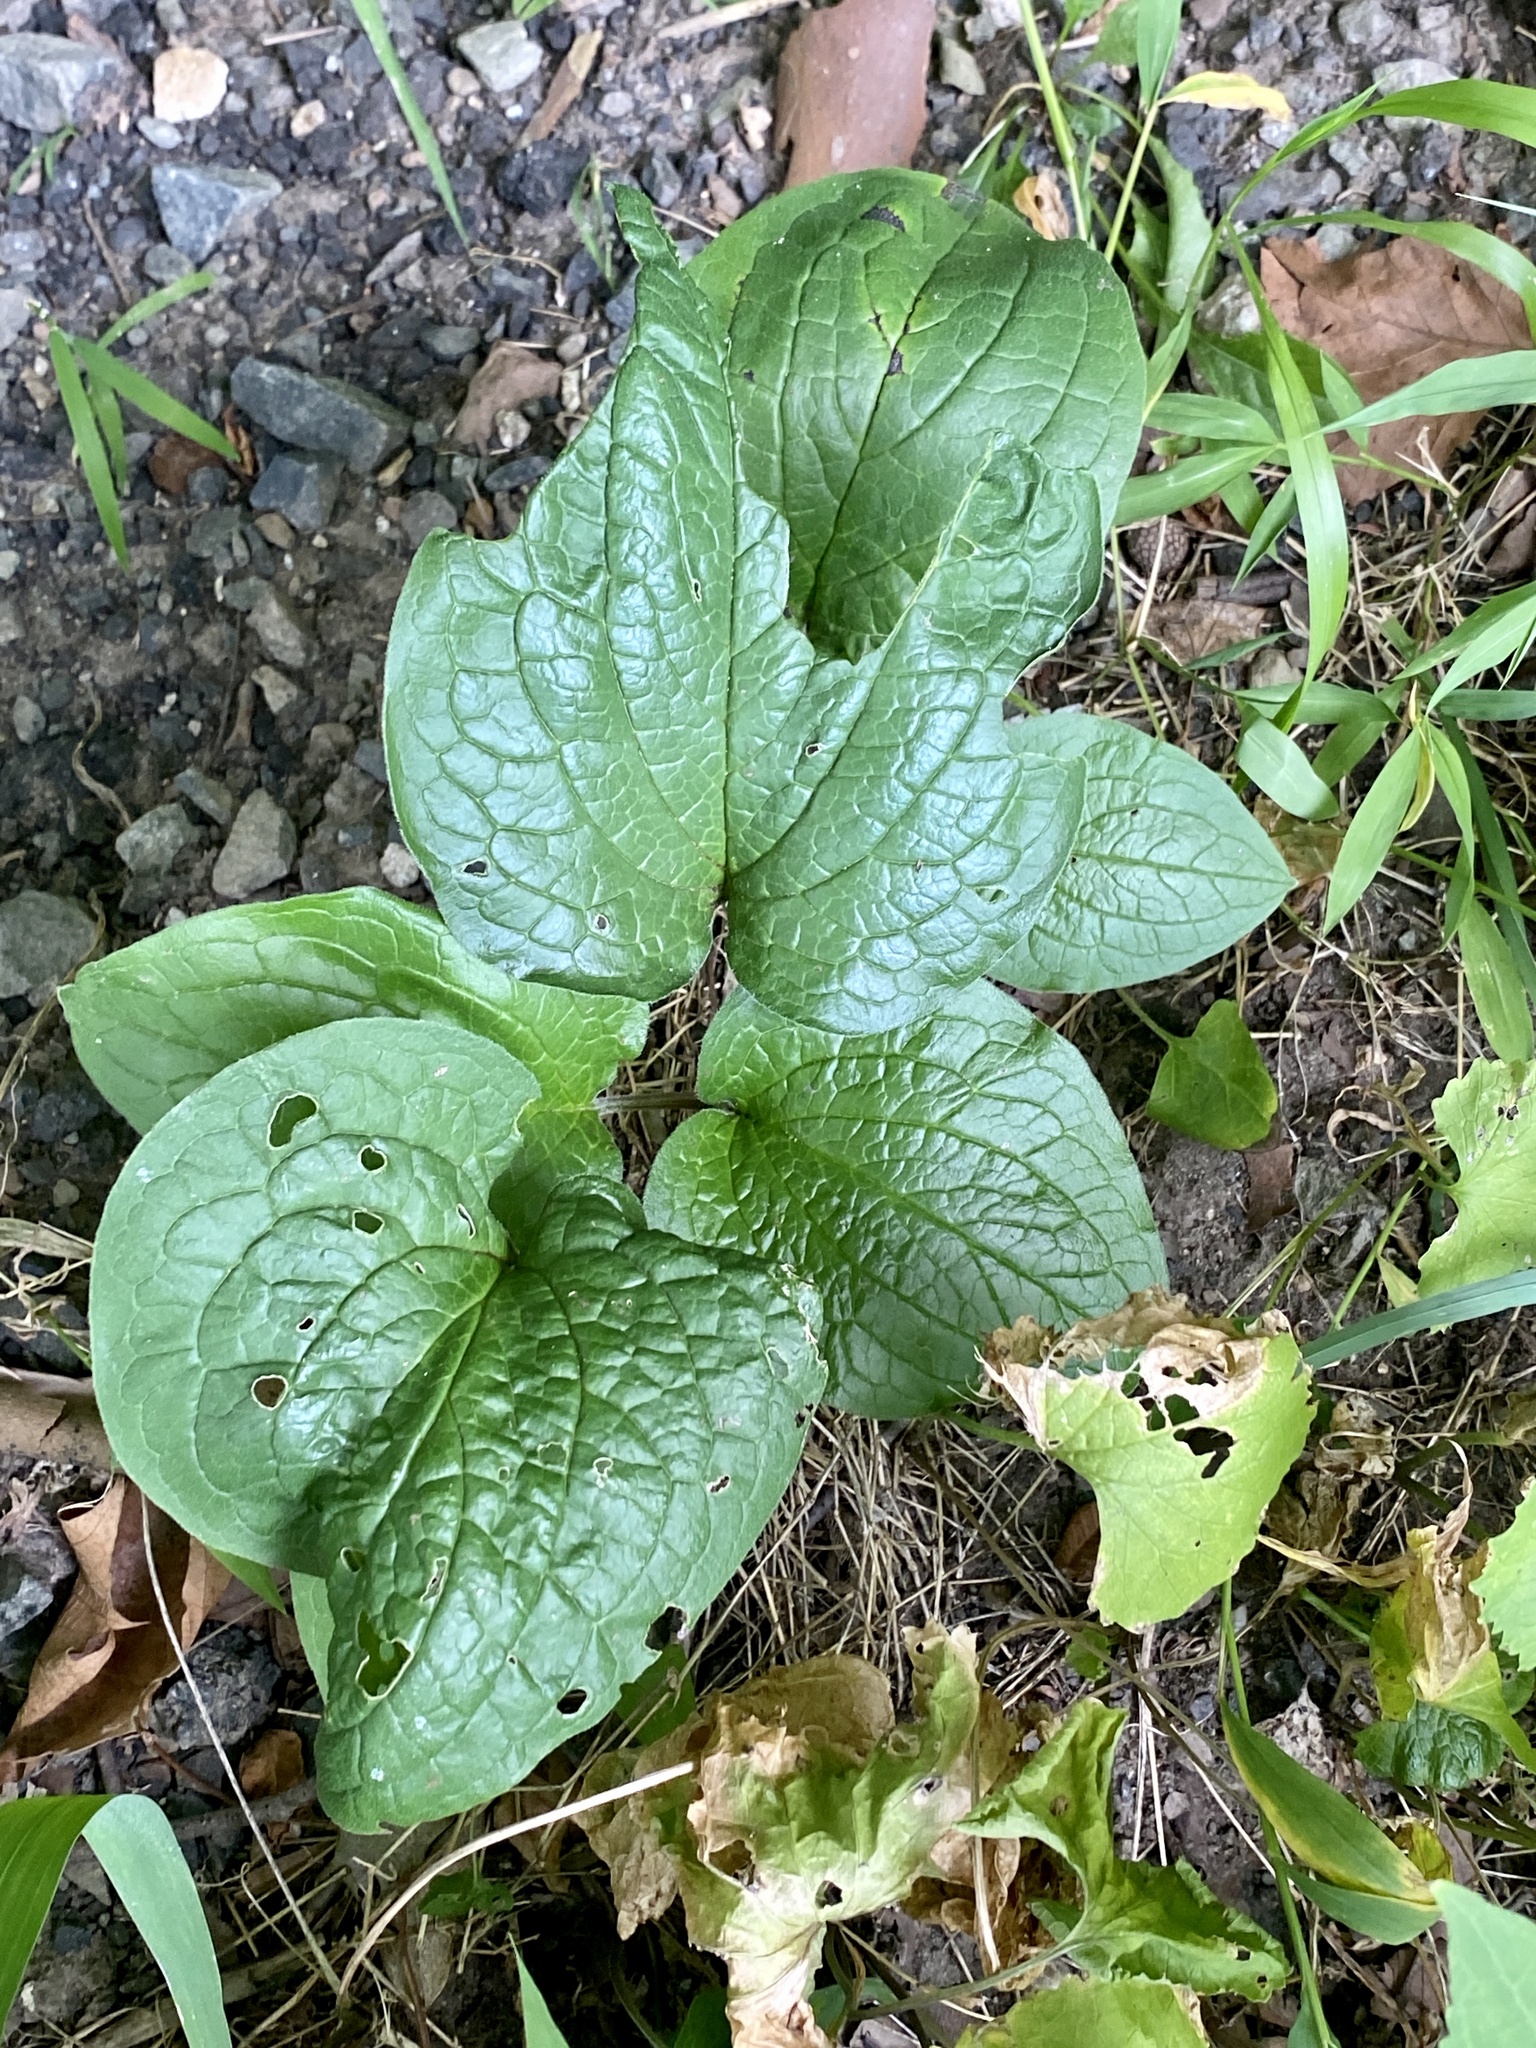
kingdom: Plantae
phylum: Tracheophyta
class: Magnoliopsida
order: Boraginales
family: Boraginaceae
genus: Hackelia
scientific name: Hackelia virginiana
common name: Beggar's-lice
